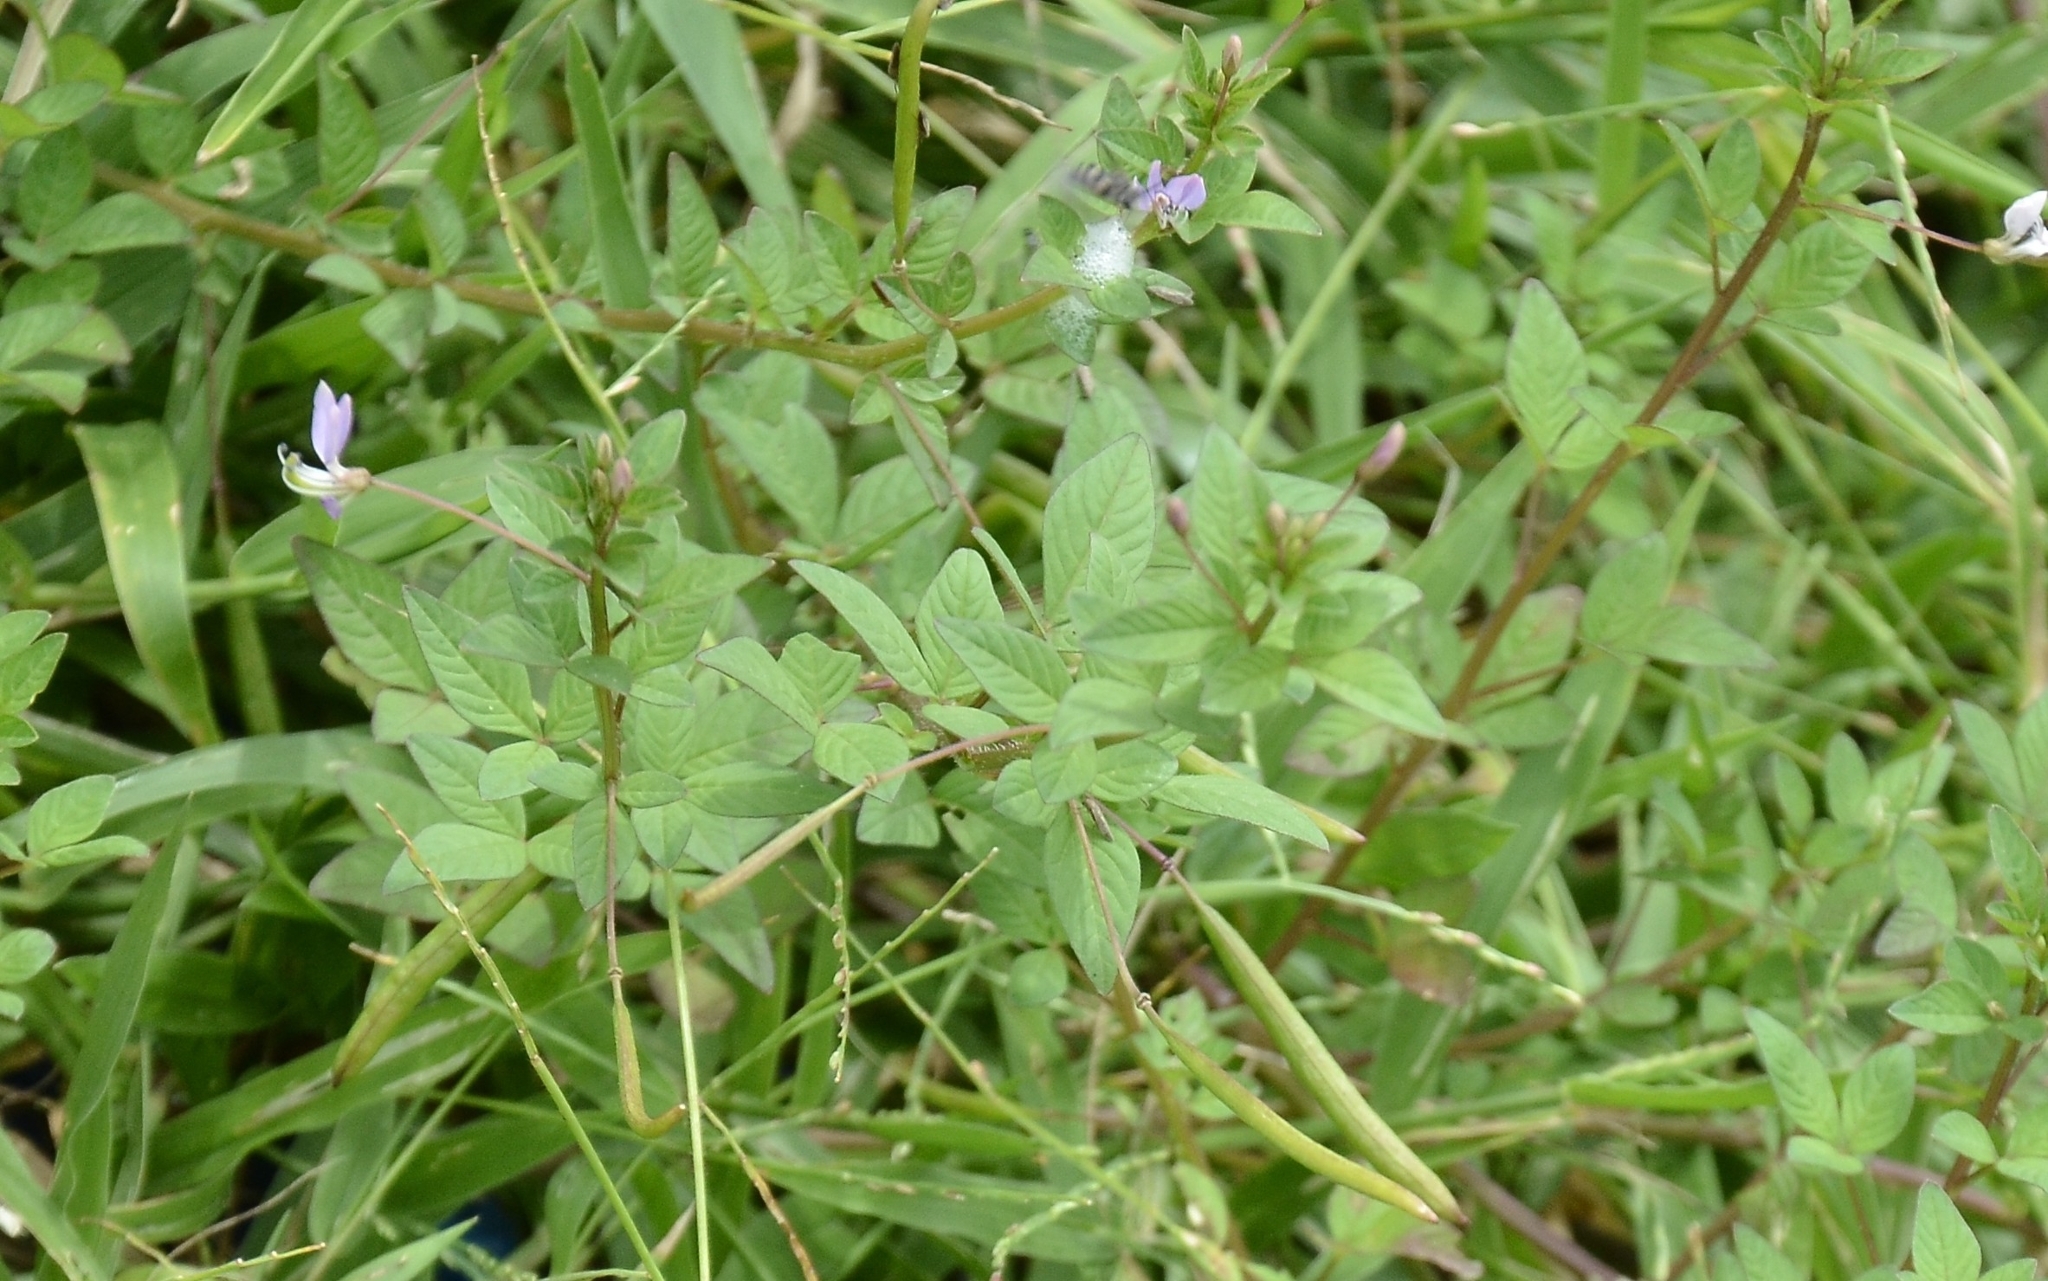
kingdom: Plantae
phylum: Tracheophyta
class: Magnoliopsida
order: Brassicales
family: Cleomaceae
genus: Sieruela
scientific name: Sieruela rutidosperma
